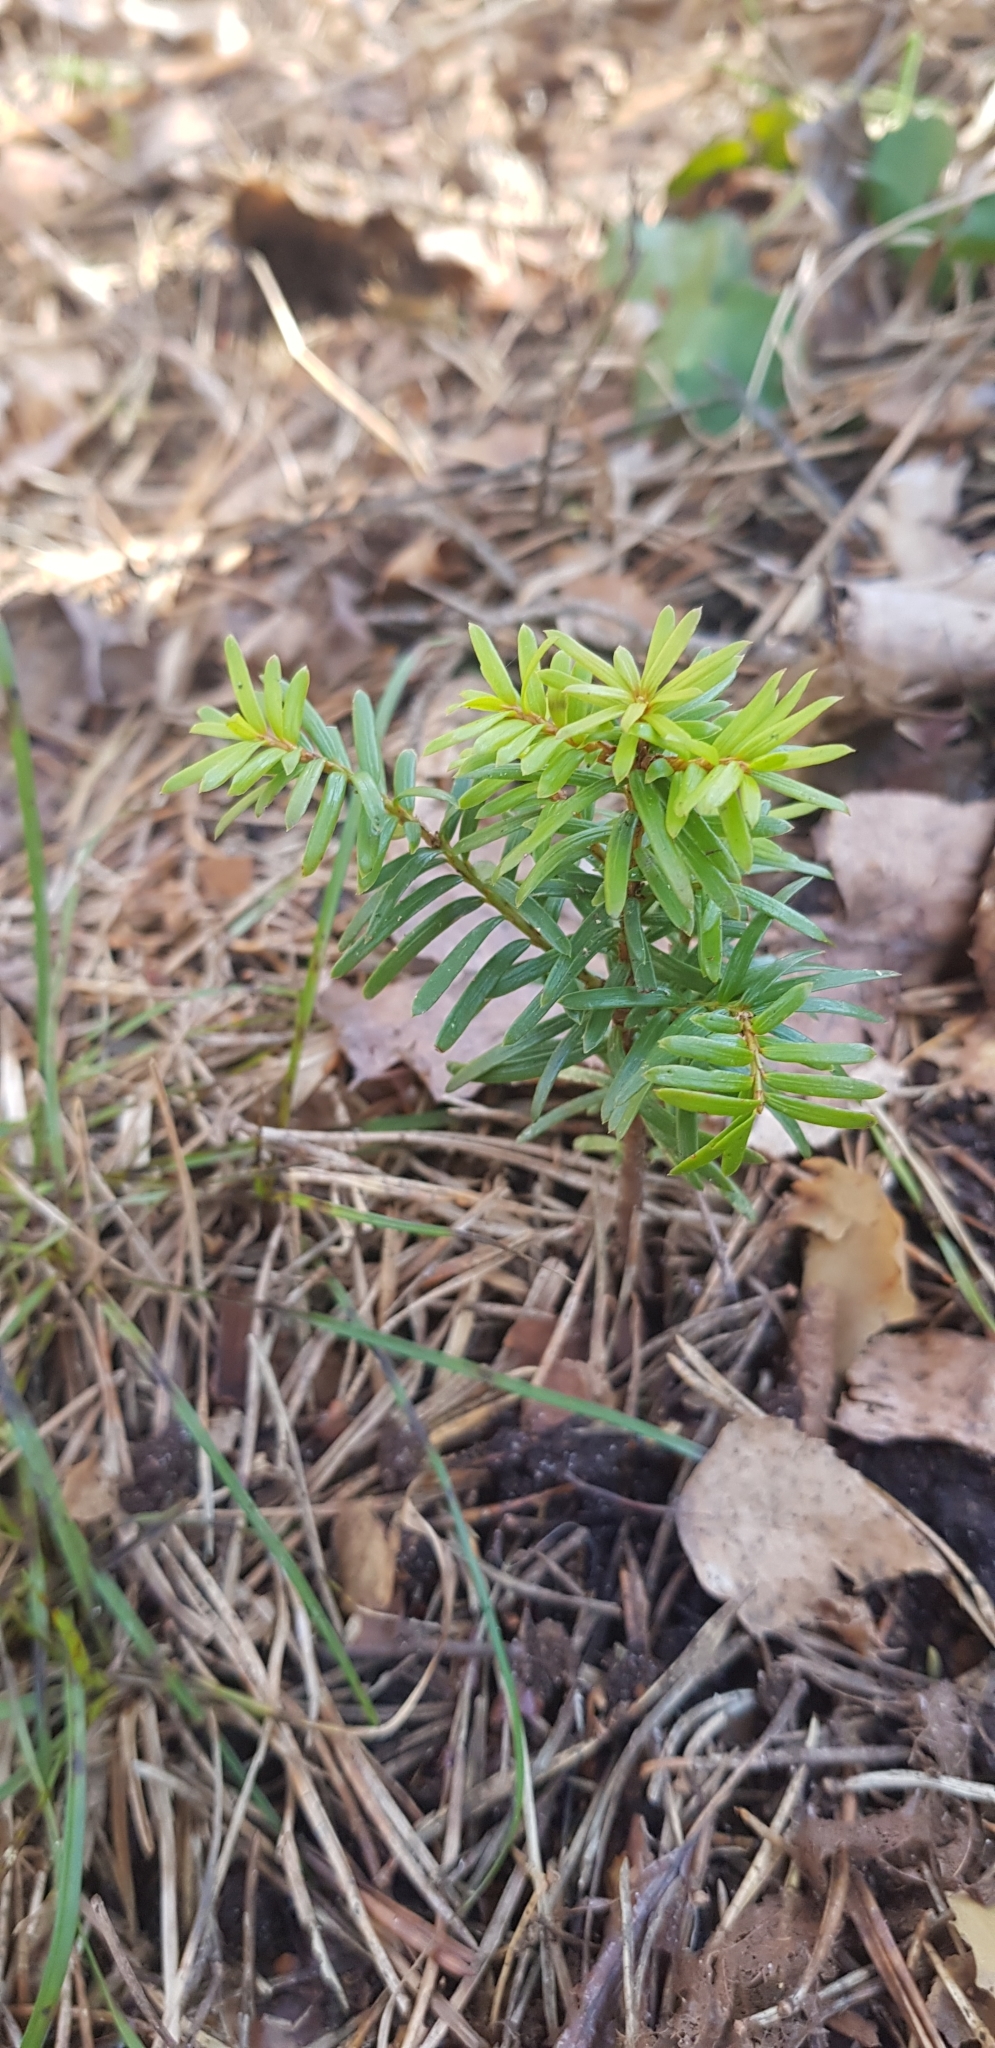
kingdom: Plantae
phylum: Tracheophyta
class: Pinopsida
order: Pinales
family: Taxaceae
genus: Taxus
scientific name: Taxus baccata
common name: Yew
